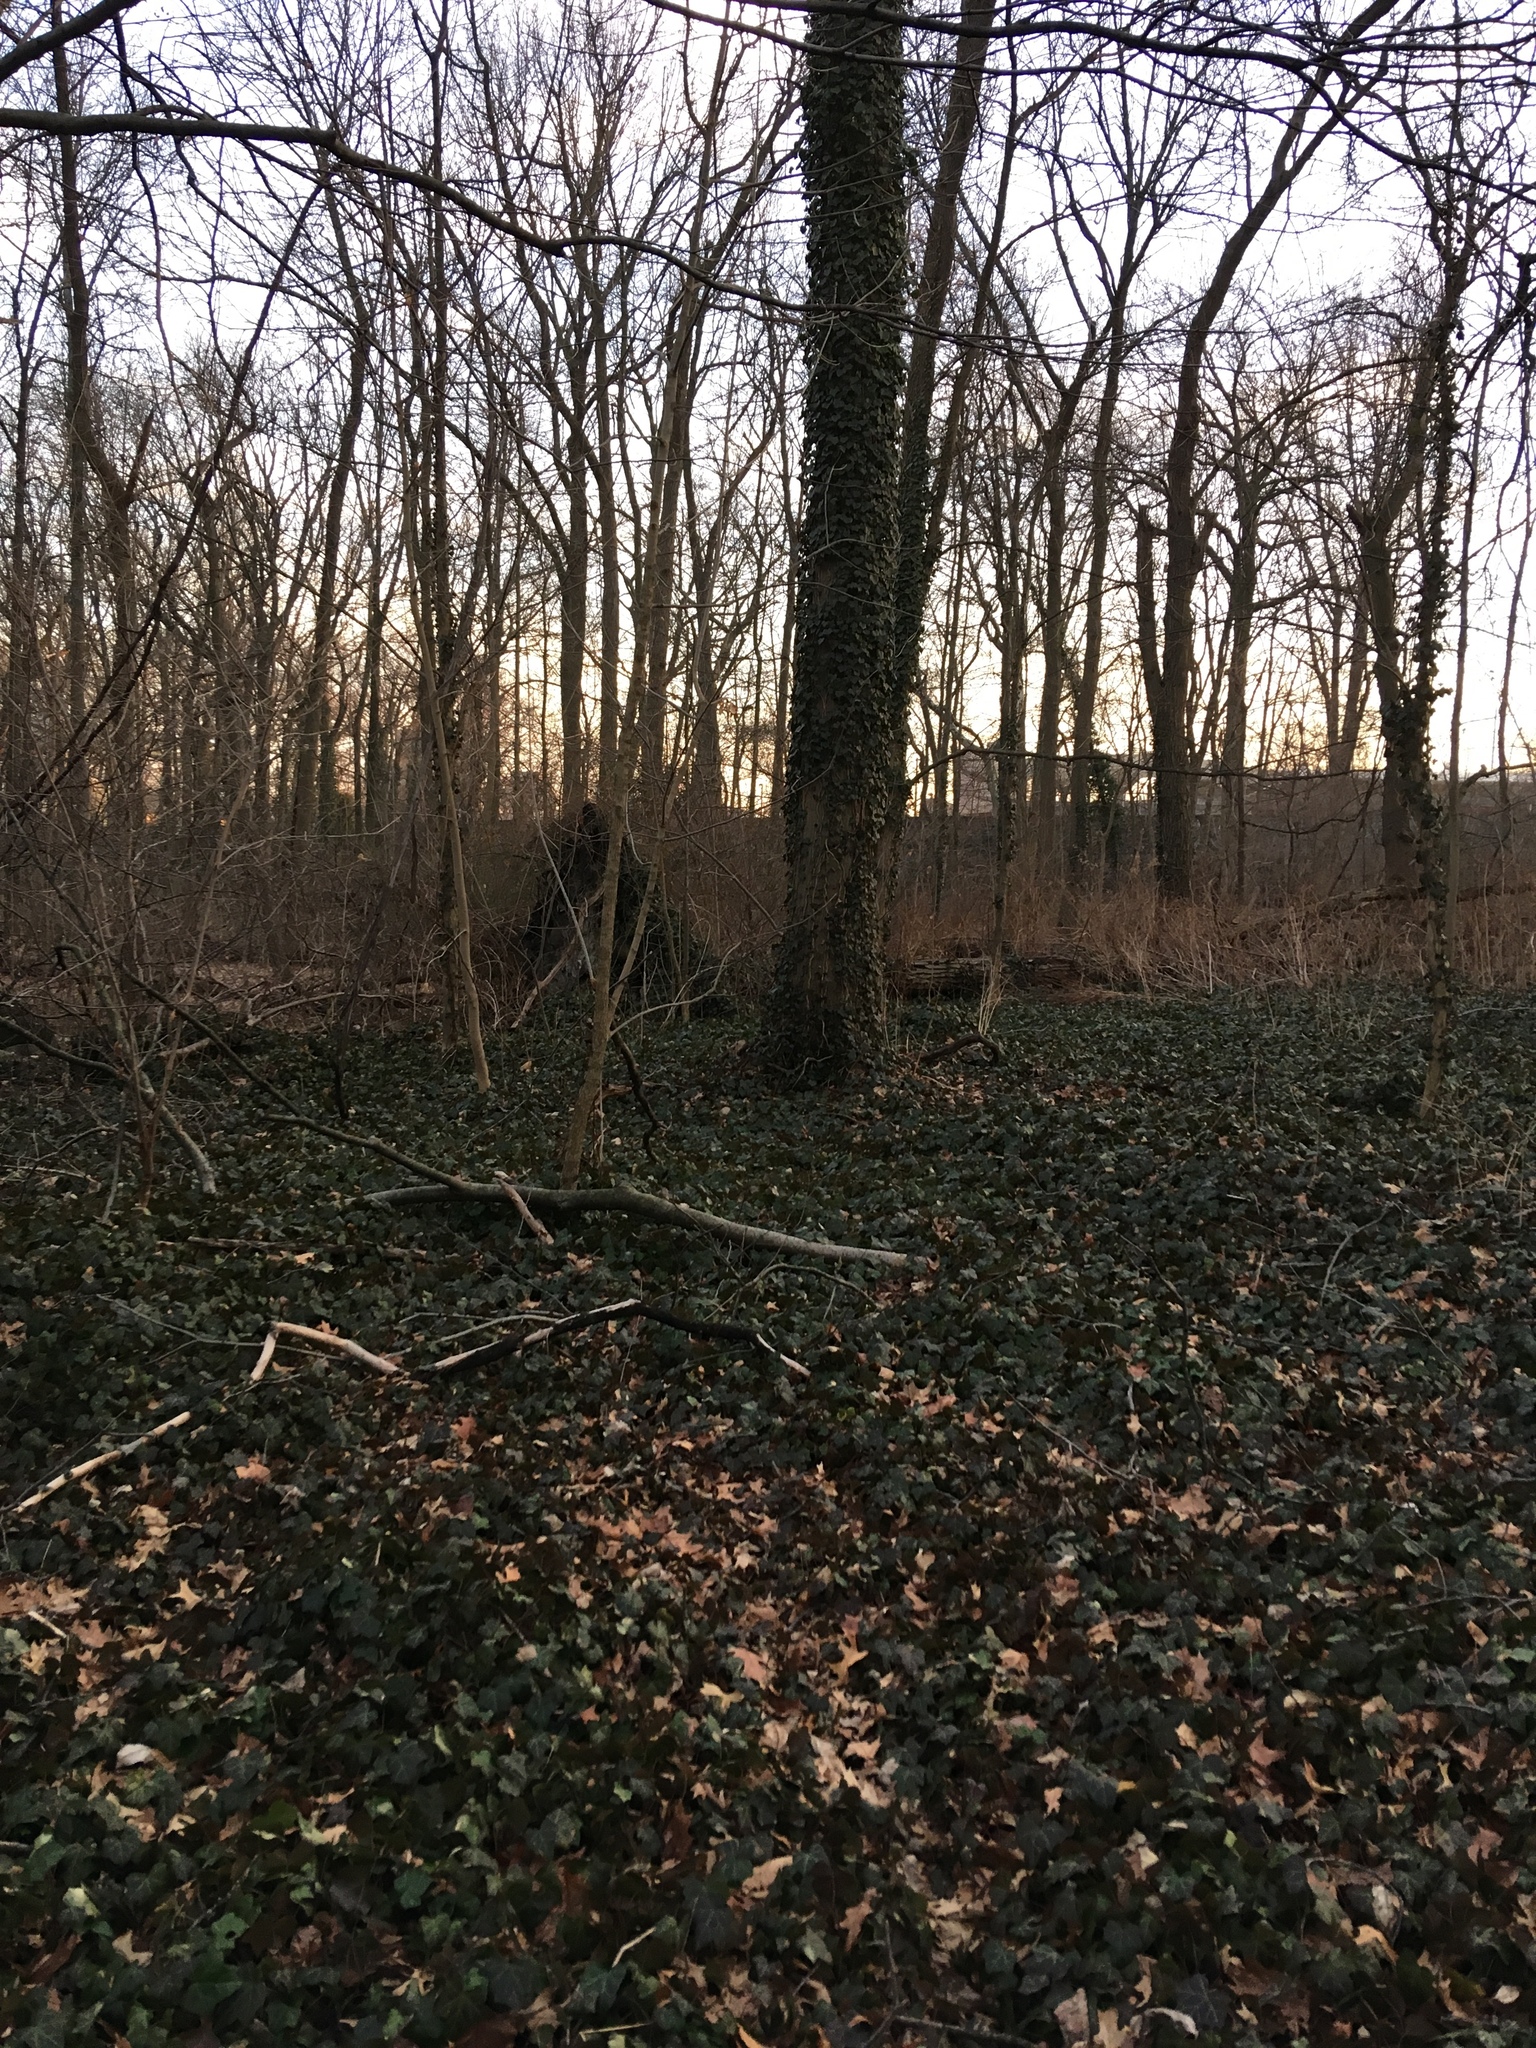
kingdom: Plantae
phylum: Tracheophyta
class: Magnoliopsida
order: Apiales
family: Araliaceae
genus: Hedera
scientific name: Hedera helix
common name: Ivy
